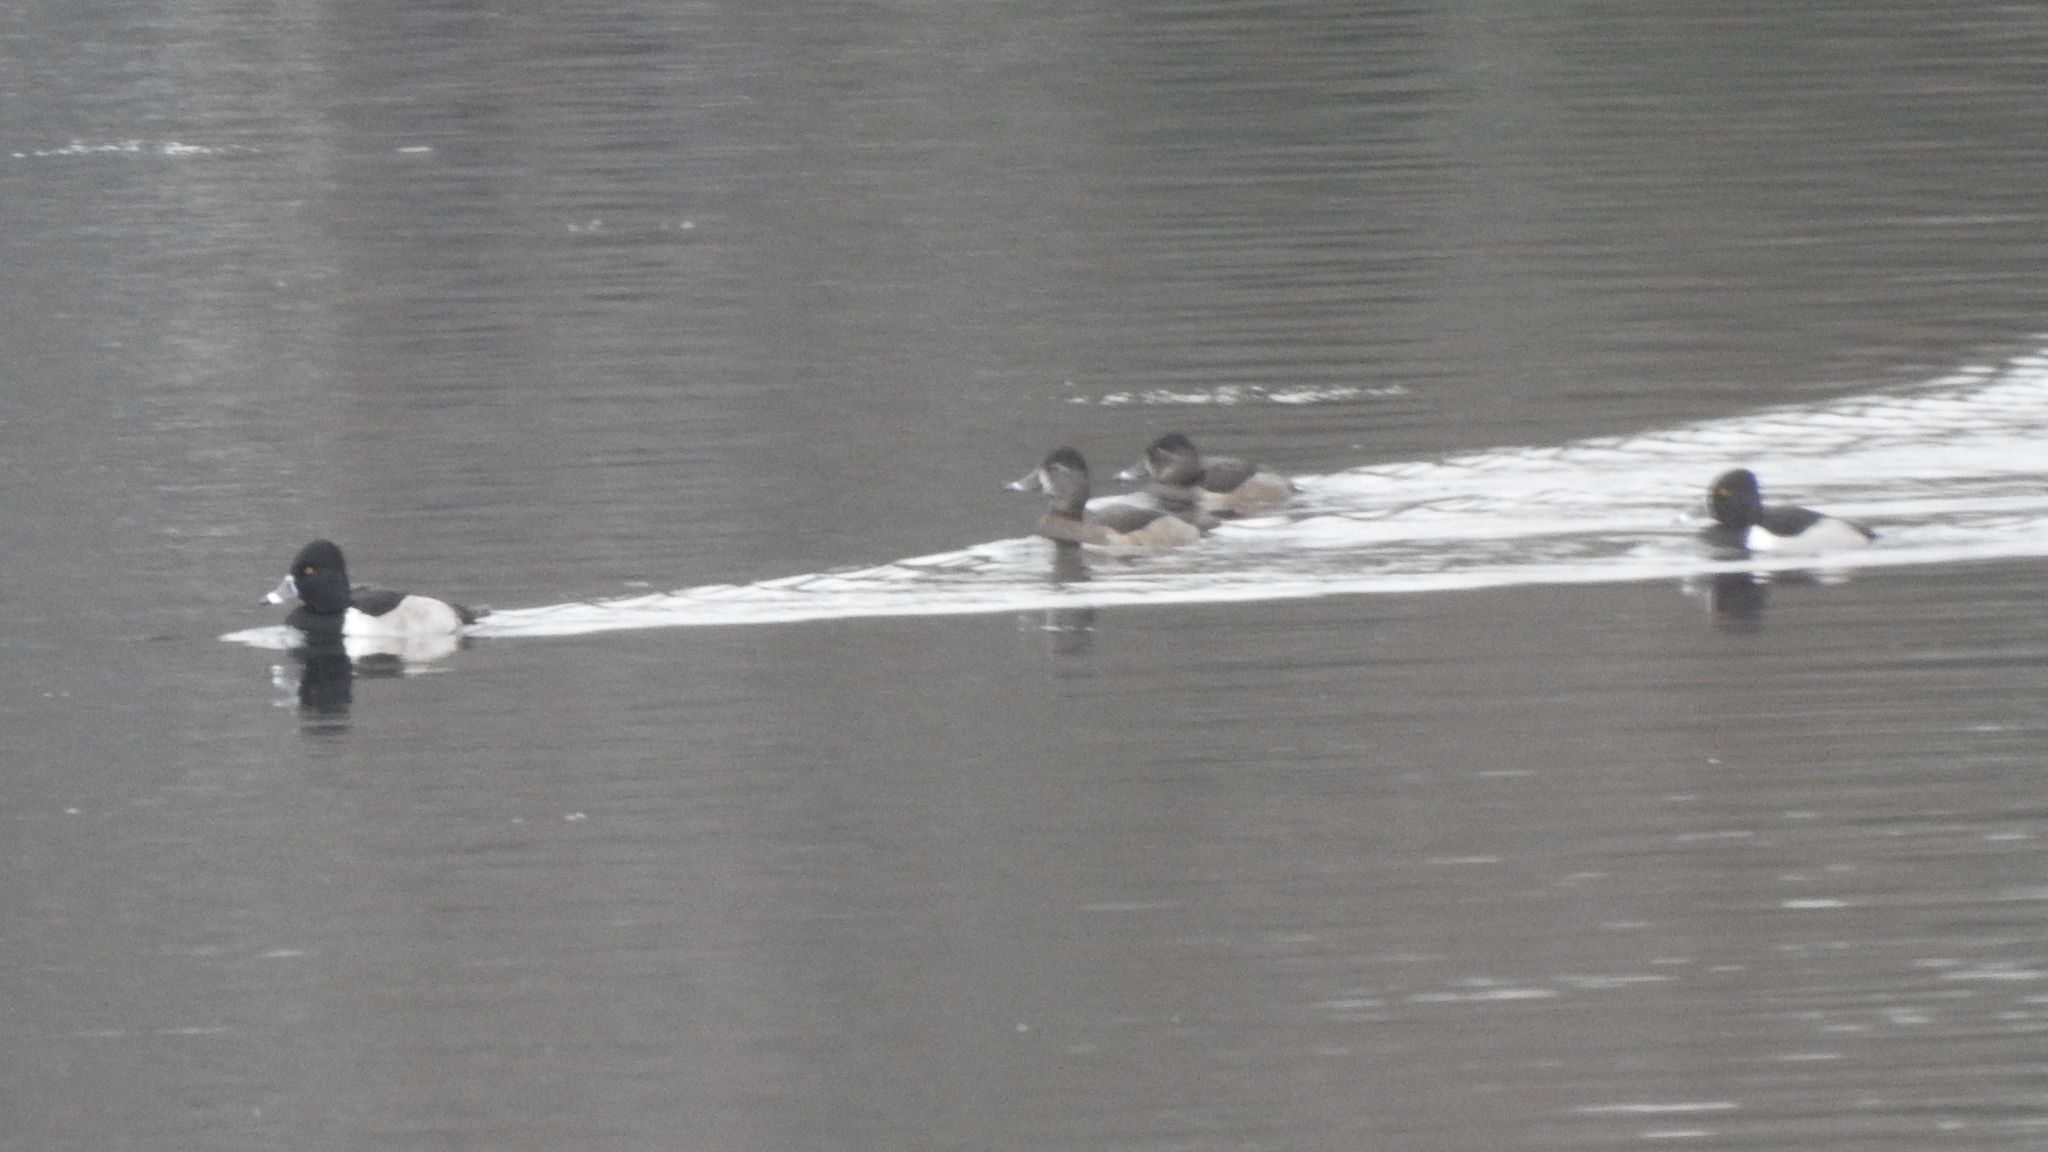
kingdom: Animalia
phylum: Chordata
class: Aves
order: Anseriformes
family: Anatidae
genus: Aythya
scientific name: Aythya collaris
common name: Ring-necked duck
